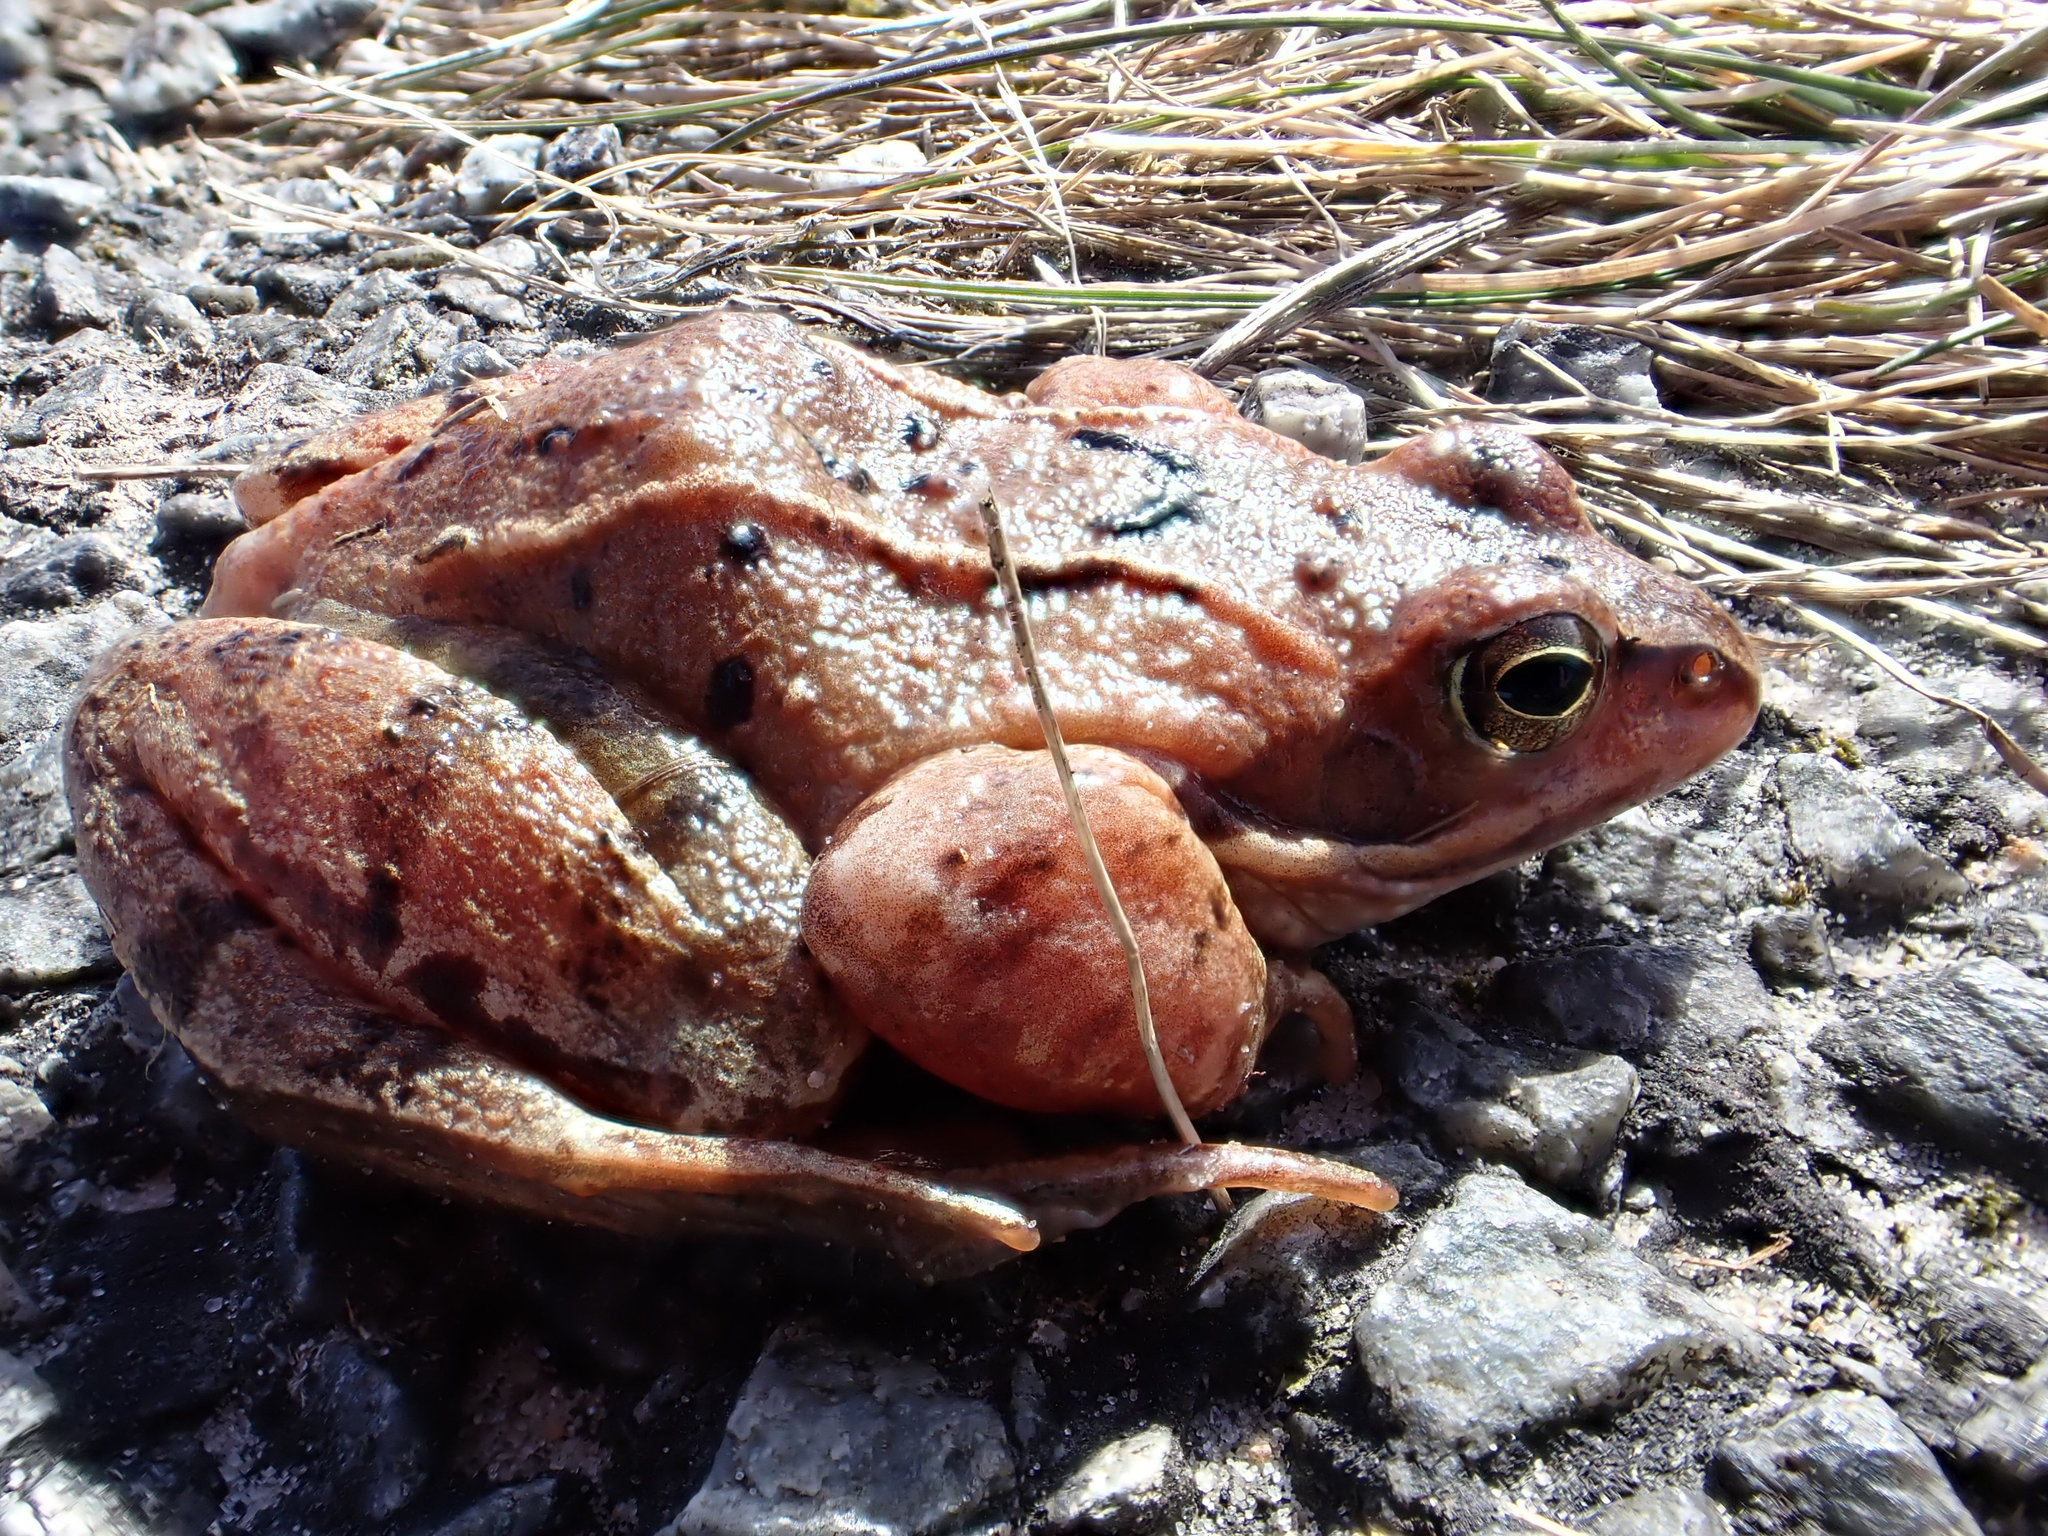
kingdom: Animalia
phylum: Chordata
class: Amphibia
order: Anura
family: Ranidae
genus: Rana
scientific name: Rana temporaria
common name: Common frog
